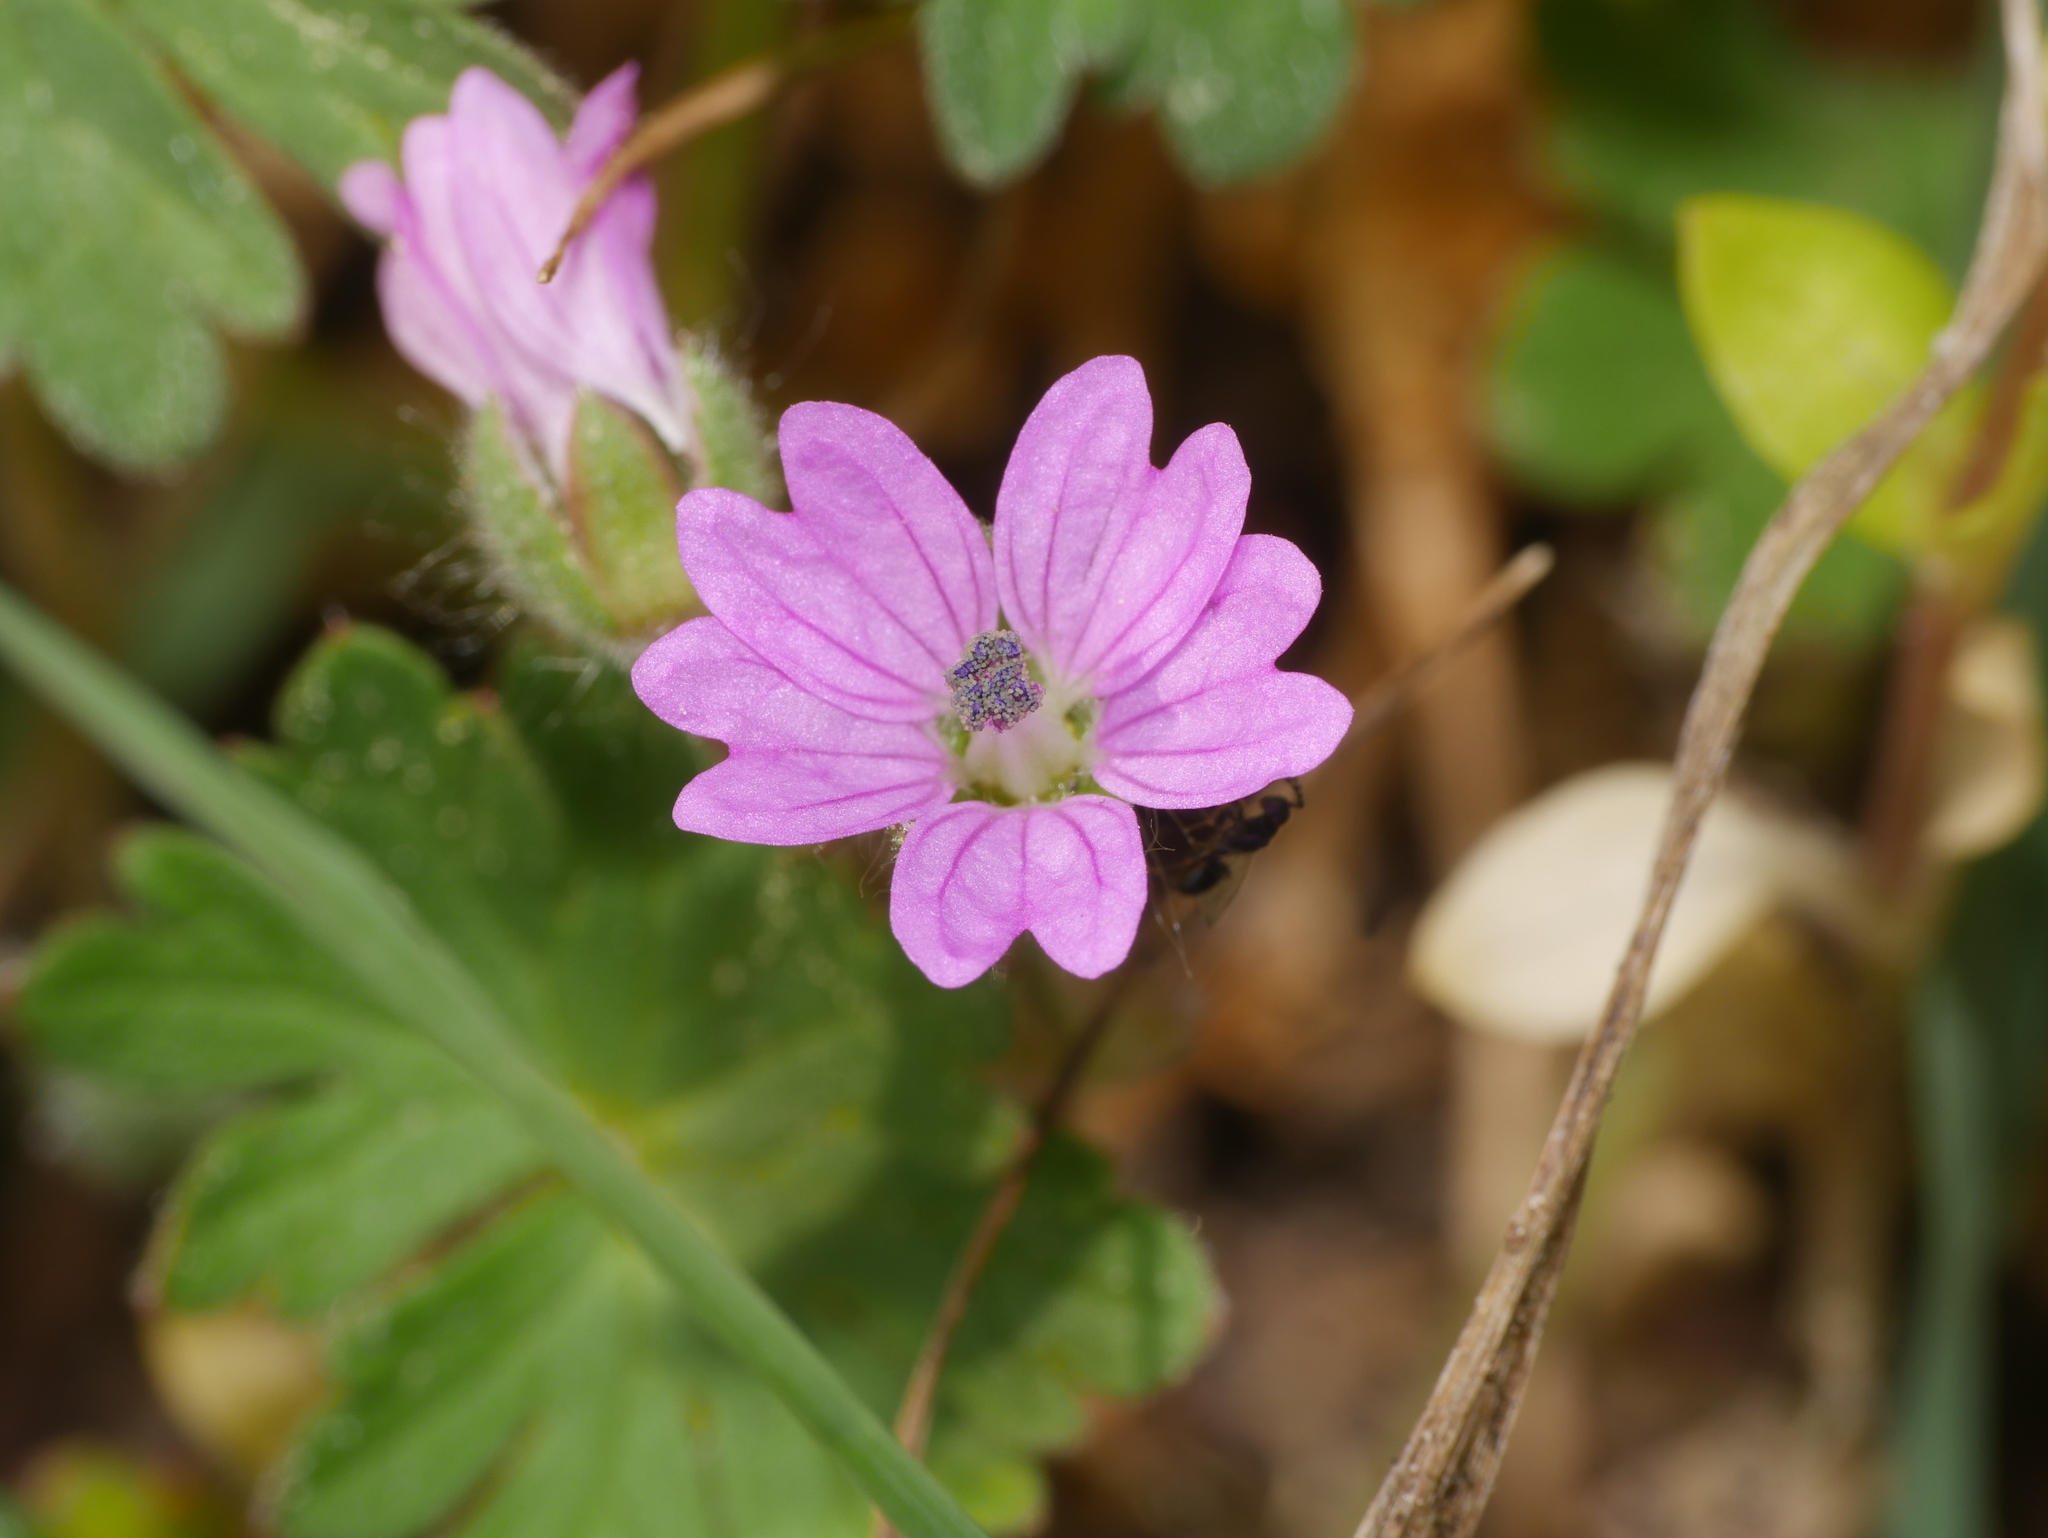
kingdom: Plantae
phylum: Tracheophyta
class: Magnoliopsida
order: Geraniales
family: Geraniaceae
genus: Geranium
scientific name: Geranium molle
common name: Dove's-foot crane's-bill
